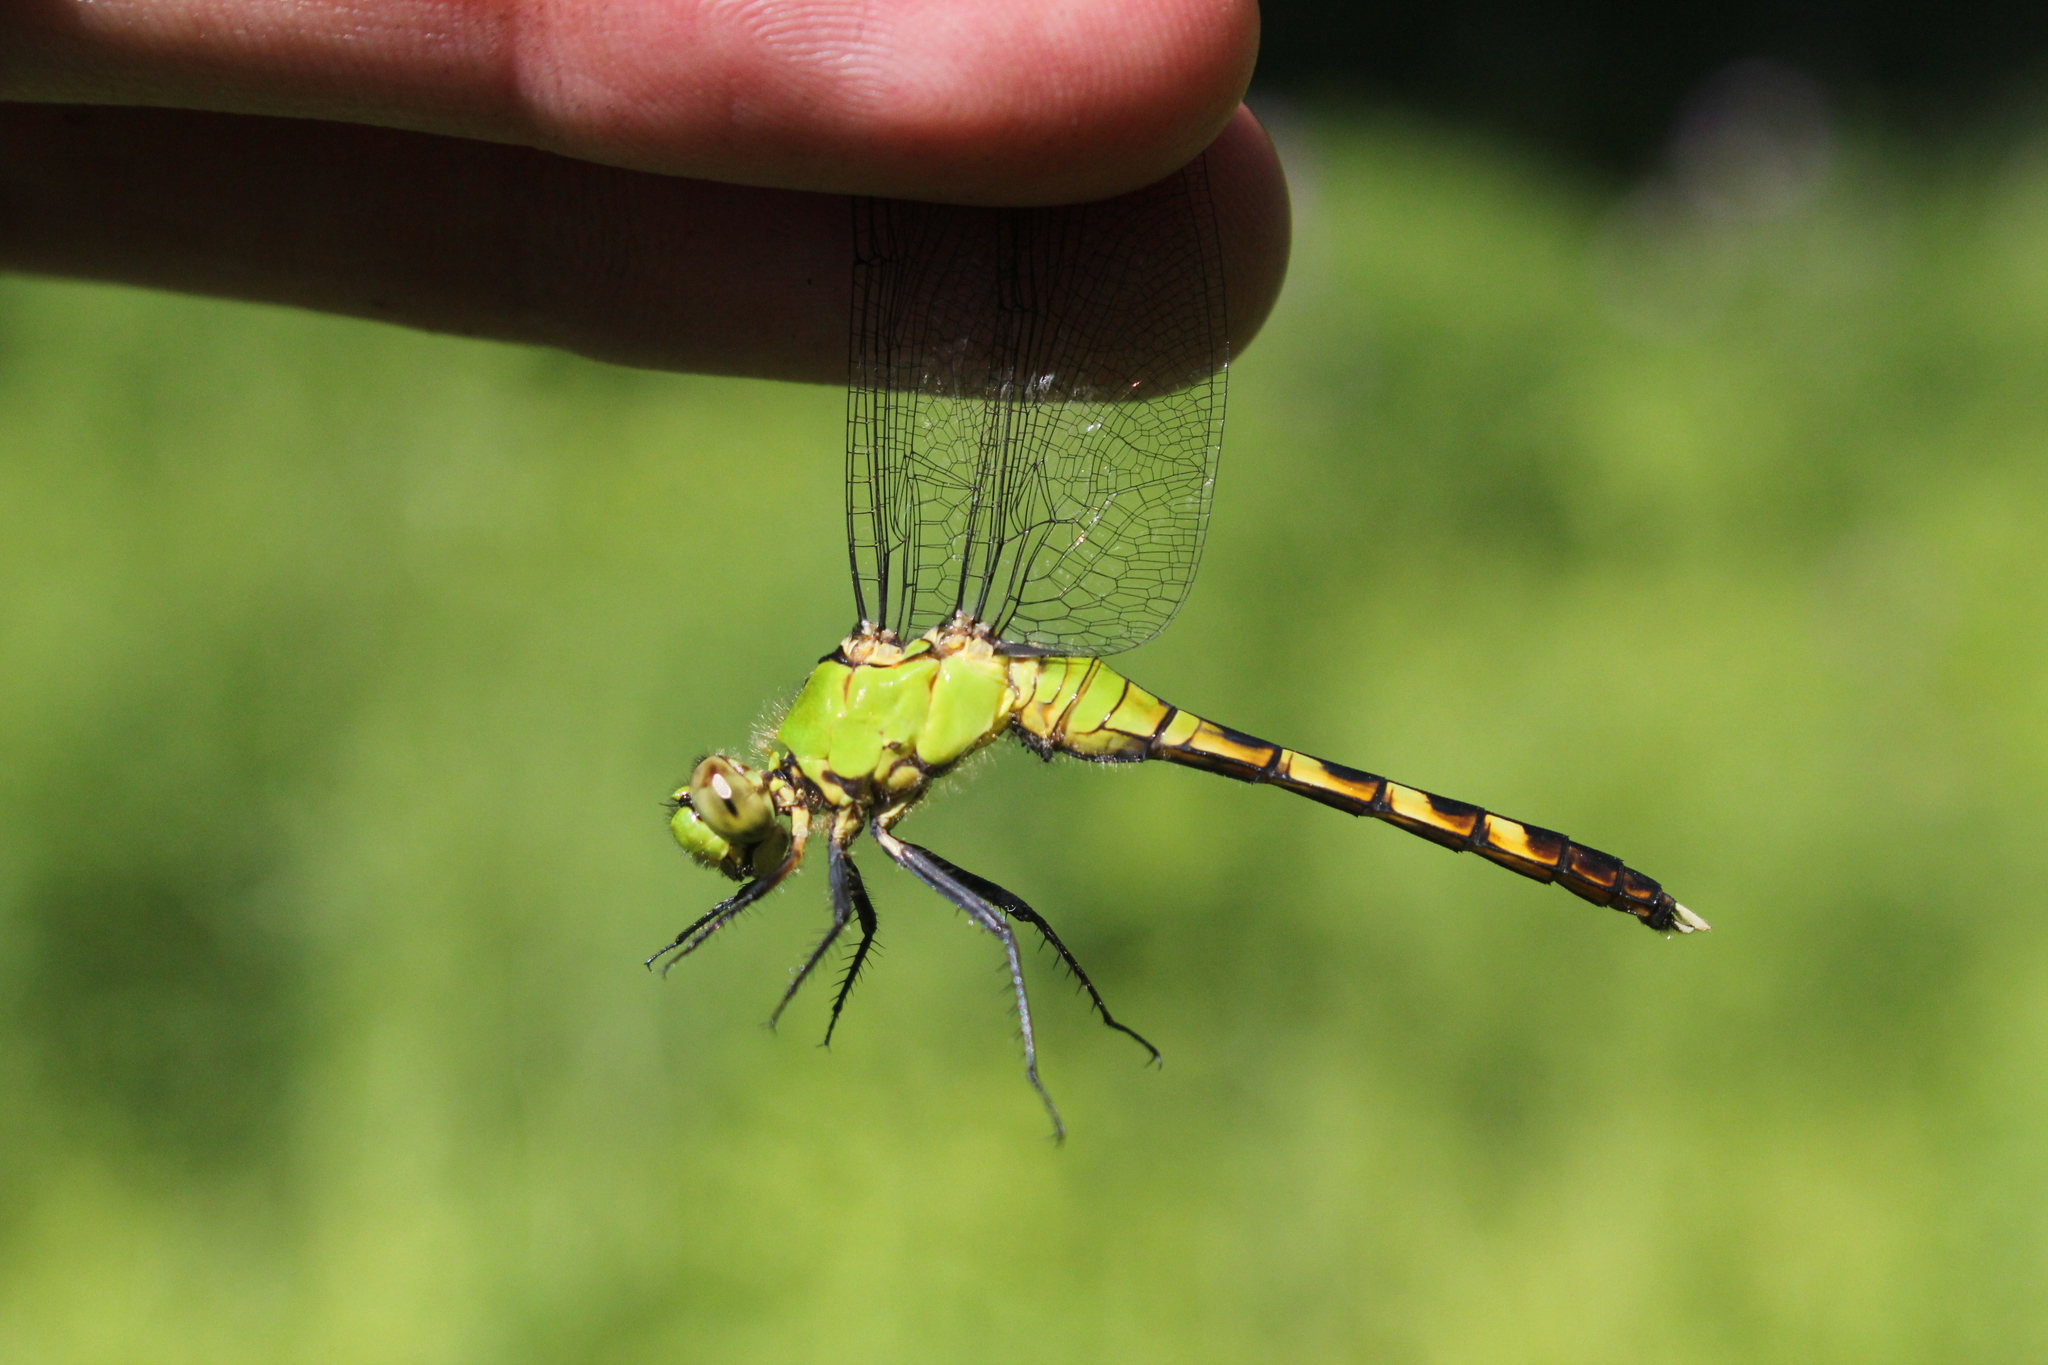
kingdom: Animalia
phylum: Arthropoda
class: Insecta
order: Odonata
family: Libellulidae
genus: Erythemis
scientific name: Erythemis simplicicollis
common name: Eastern pondhawk
